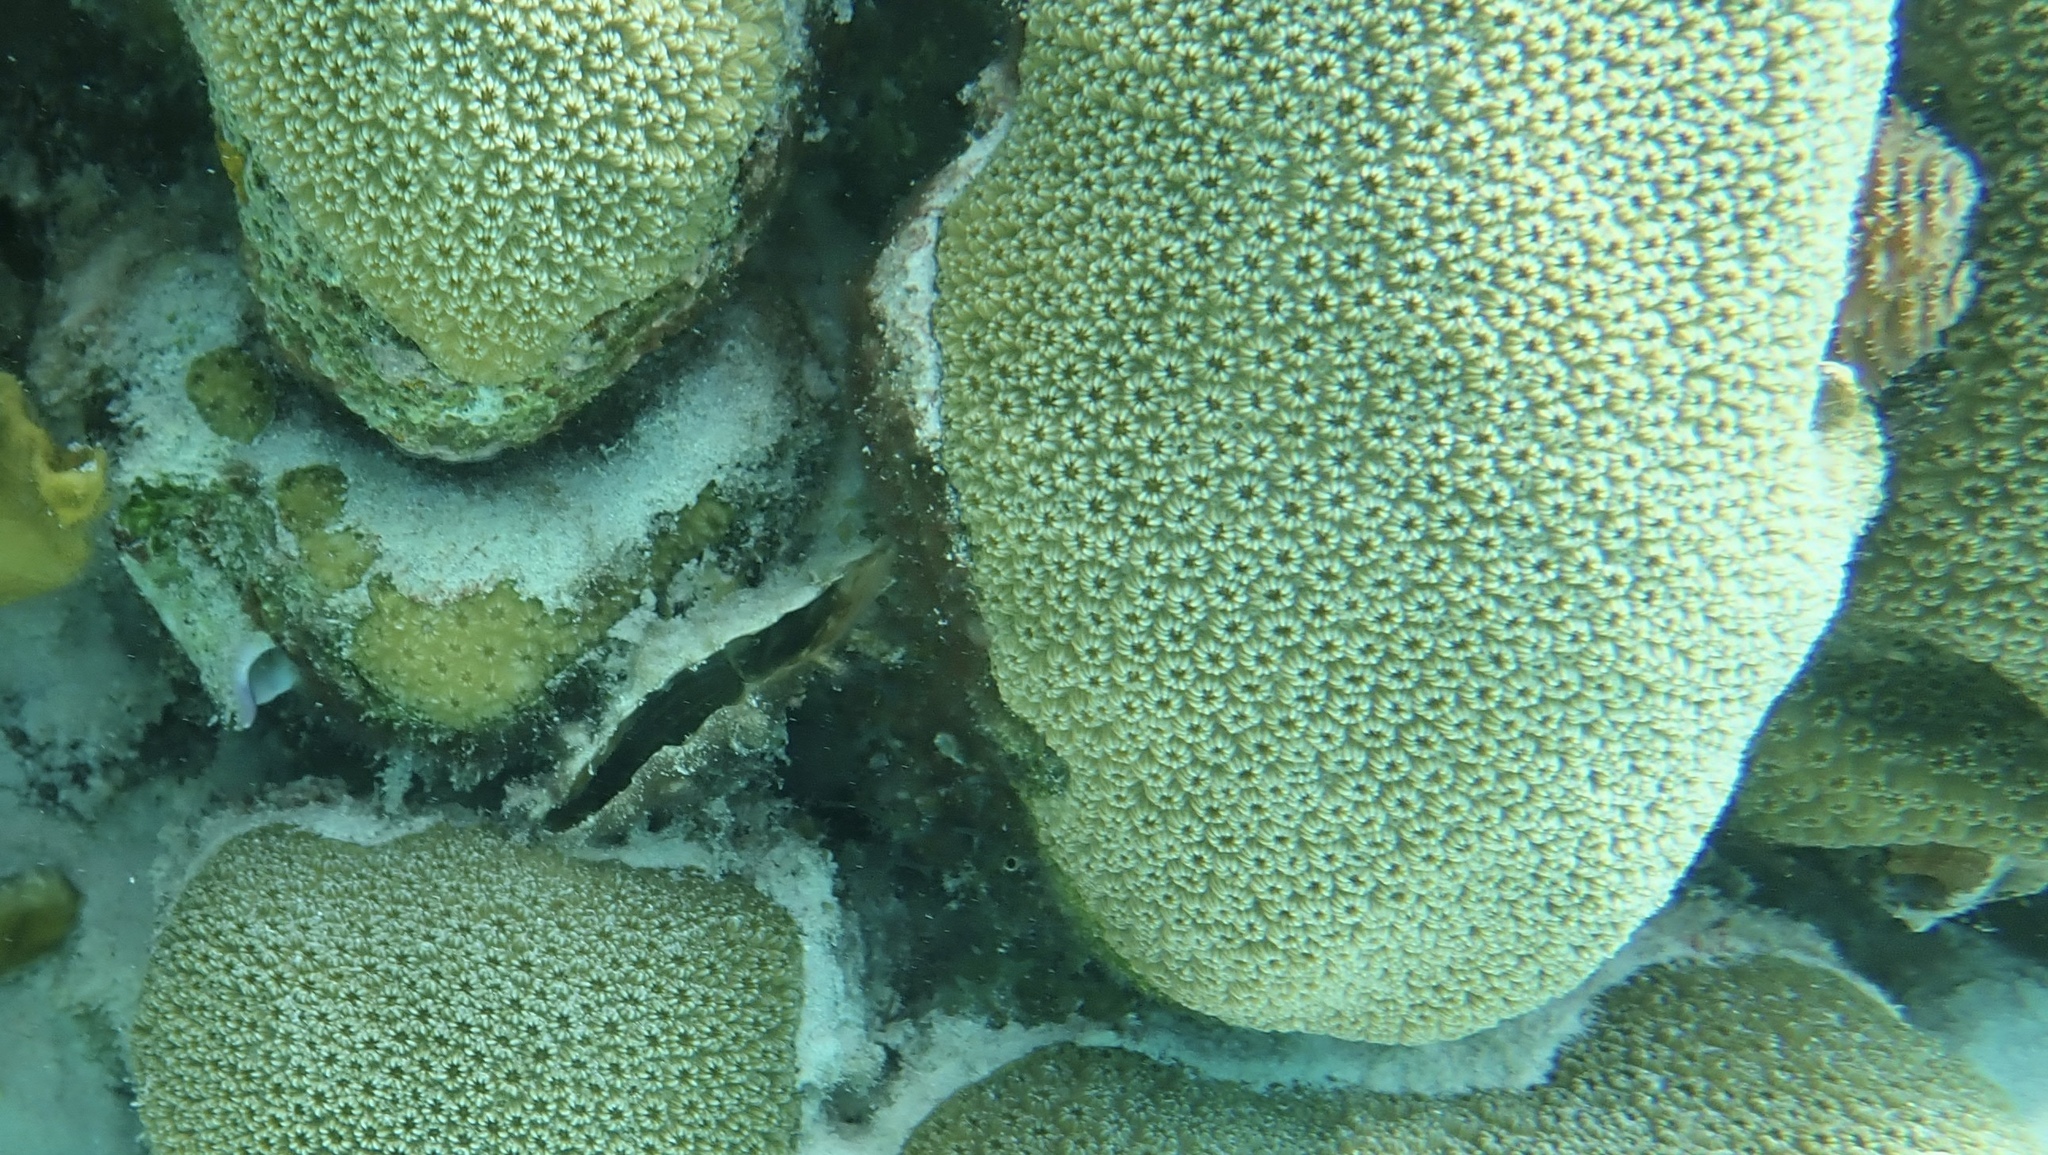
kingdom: Animalia
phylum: Cnidaria
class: Anthozoa
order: Scleractinia
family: Merulinidae
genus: Orbicella
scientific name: Orbicella annularis
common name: Boulder star coral
